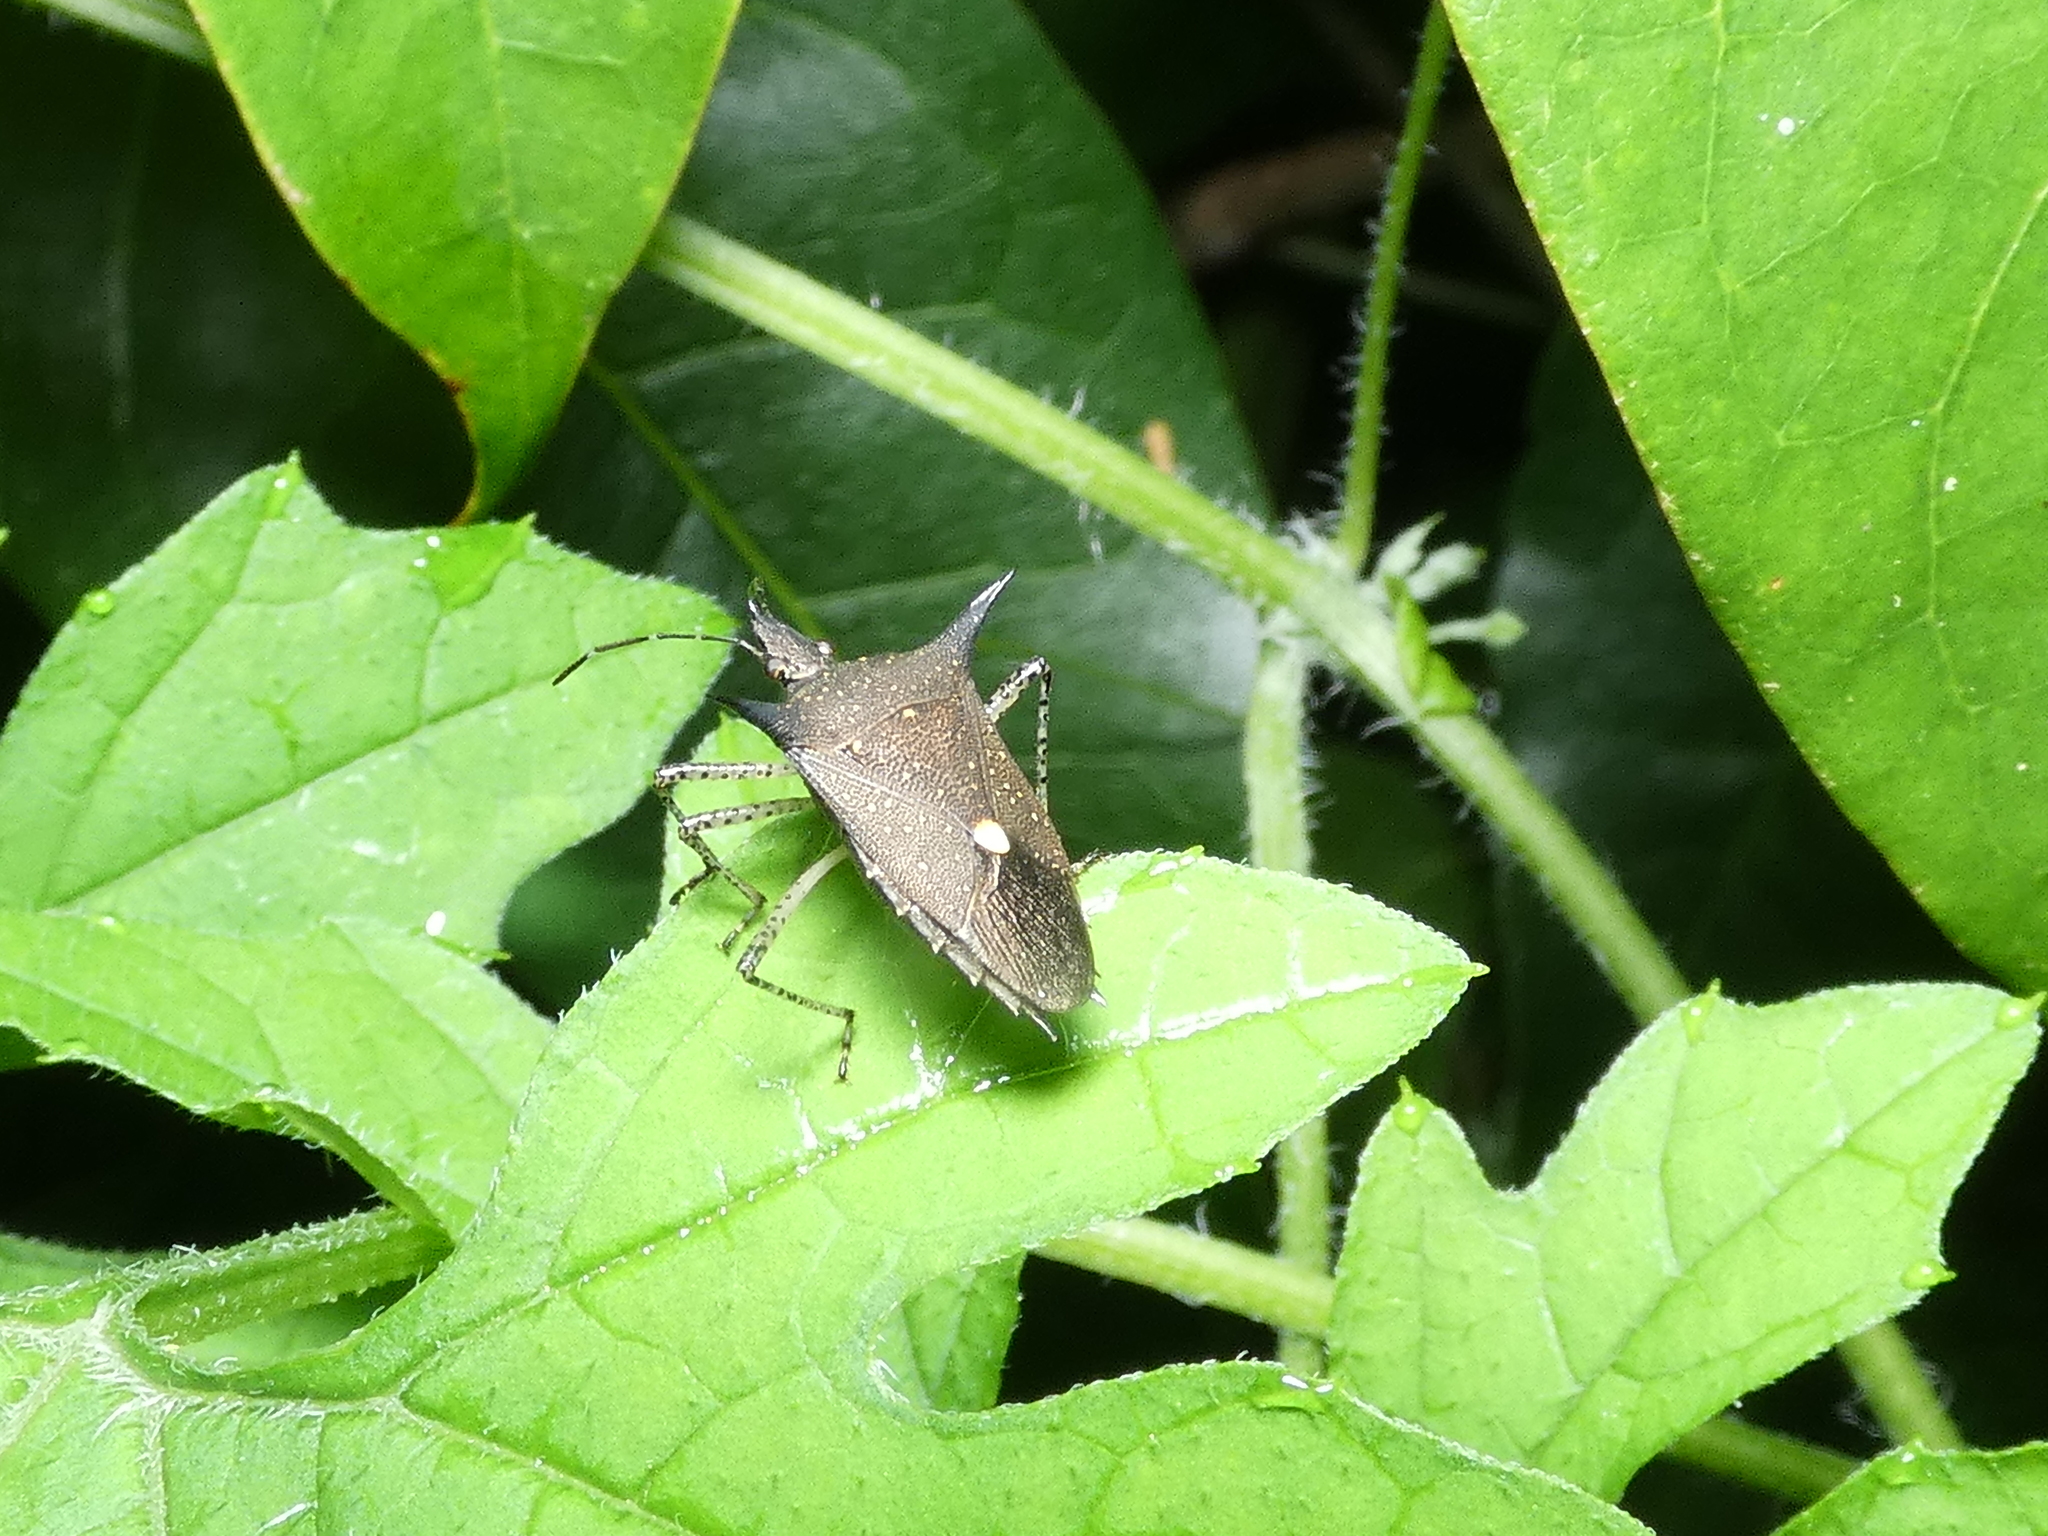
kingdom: Animalia
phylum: Arthropoda
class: Insecta
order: Hemiptera
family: Pentatomidae
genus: Proxys
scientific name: Proxys albopunctulatus
